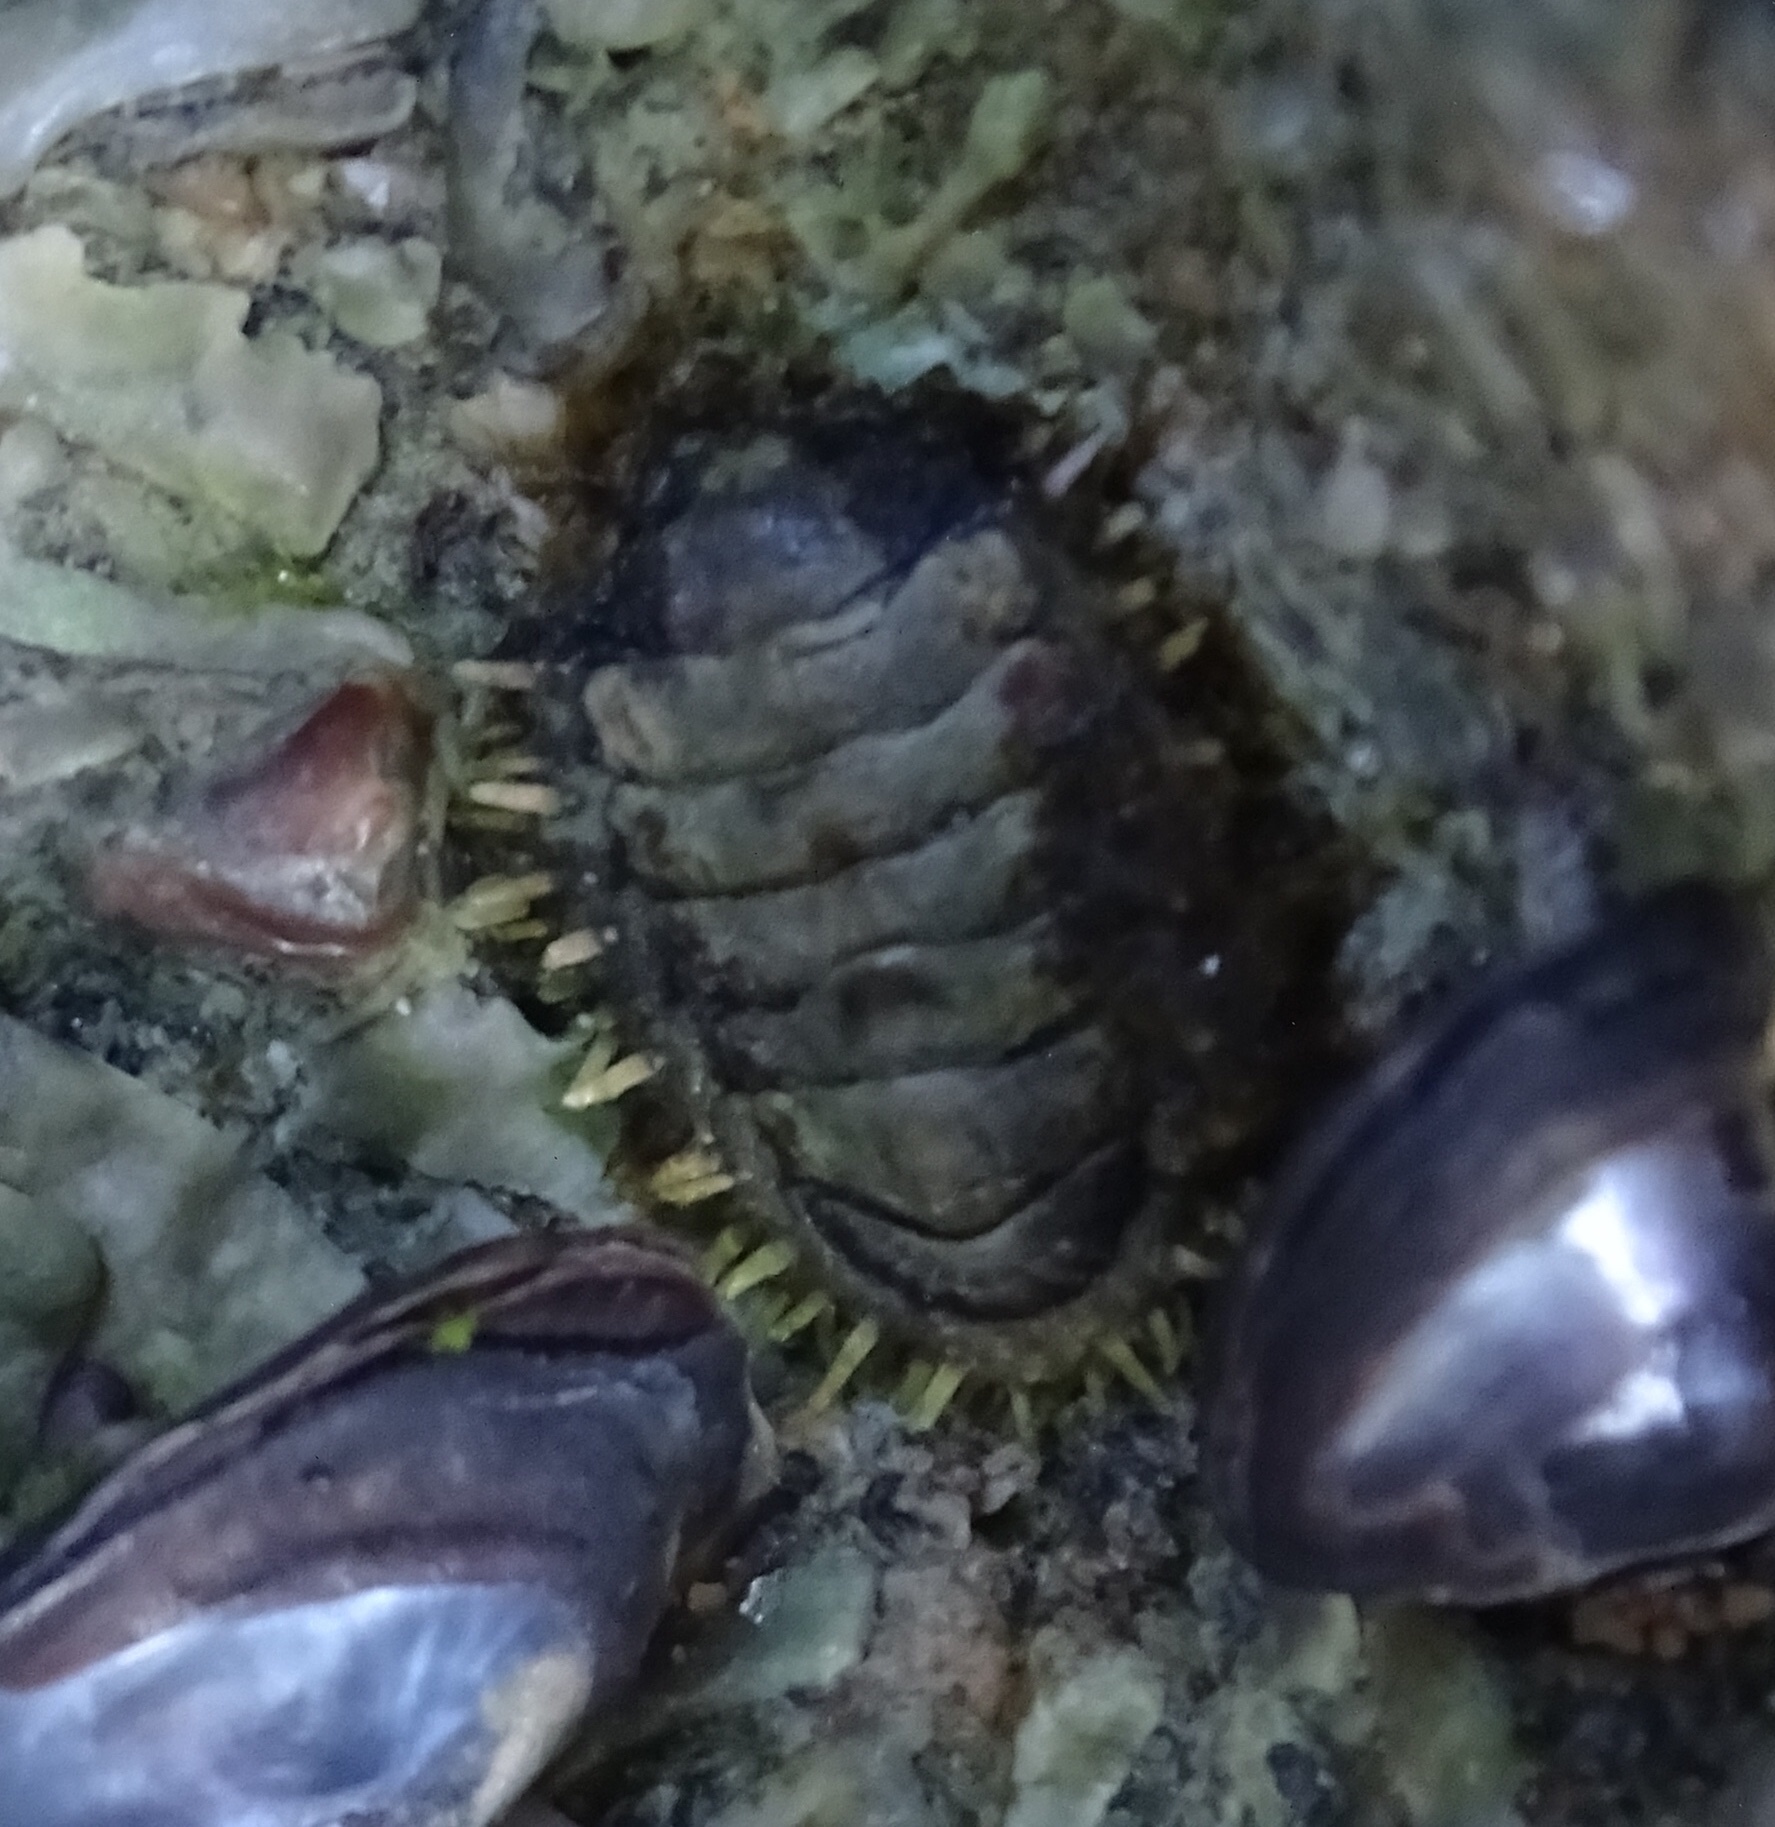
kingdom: Animalia
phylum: Mollusca
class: Polyplacophora
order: Chitonida
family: Tonicellidae
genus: Ceratozona
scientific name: Ceratozona squalida
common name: Rough-girdled chiton
